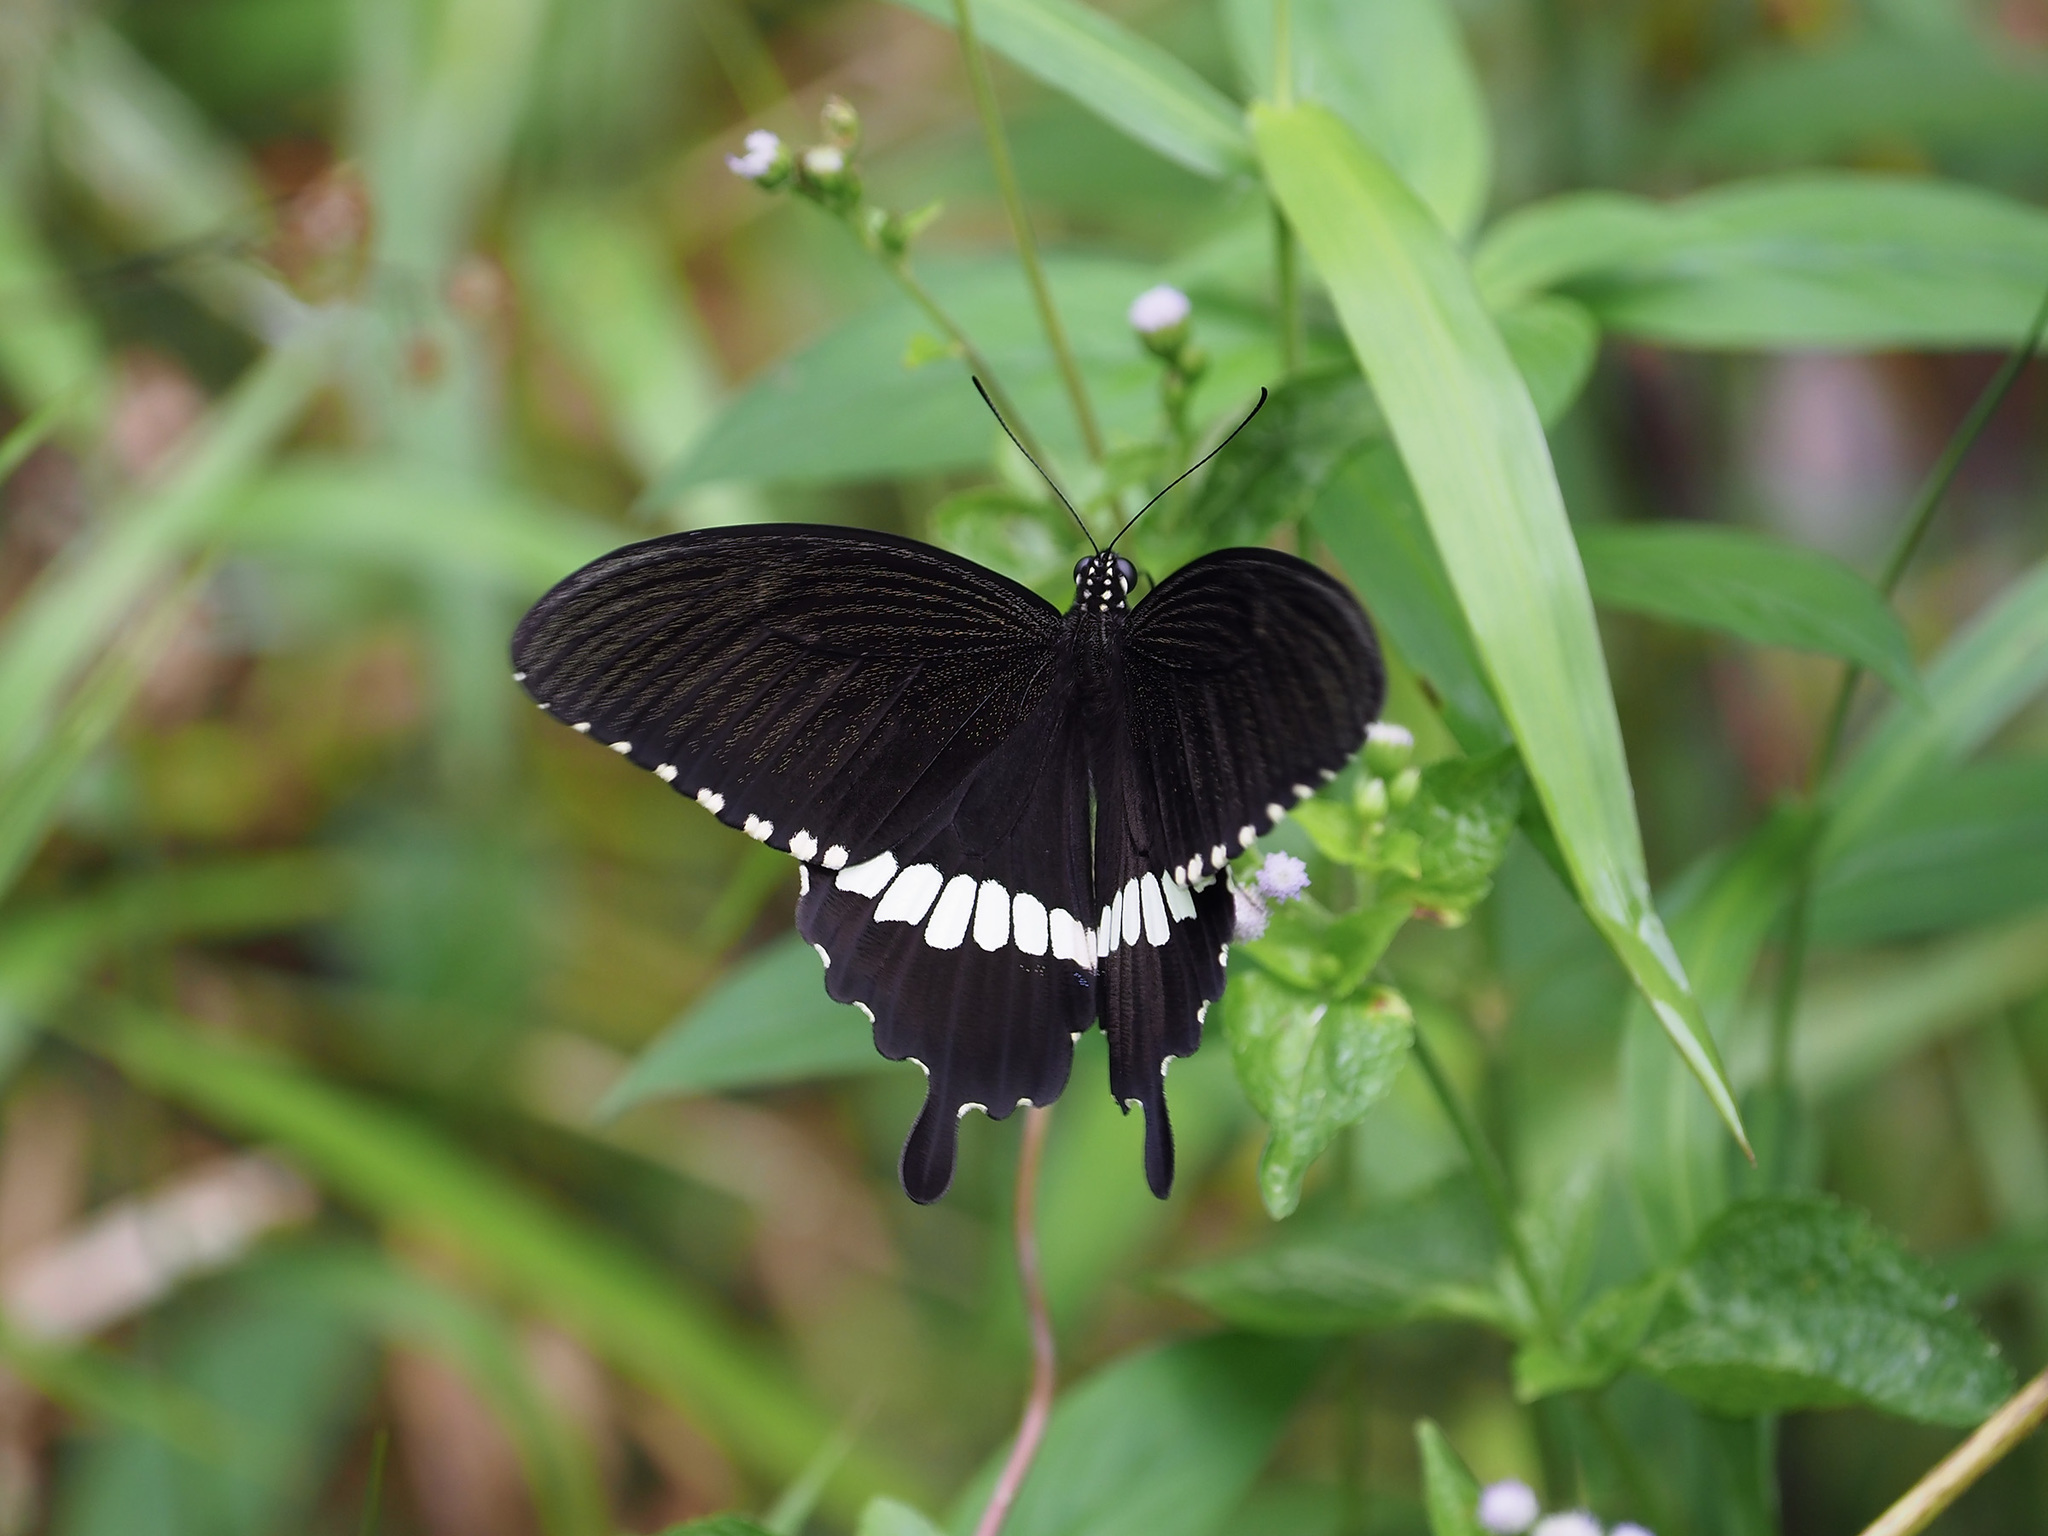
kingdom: Animalia
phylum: Arthropoda
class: Insecta
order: Lepidoptera
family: Papilionidae
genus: Papilio
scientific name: Papilio polytes
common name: Common mormon
